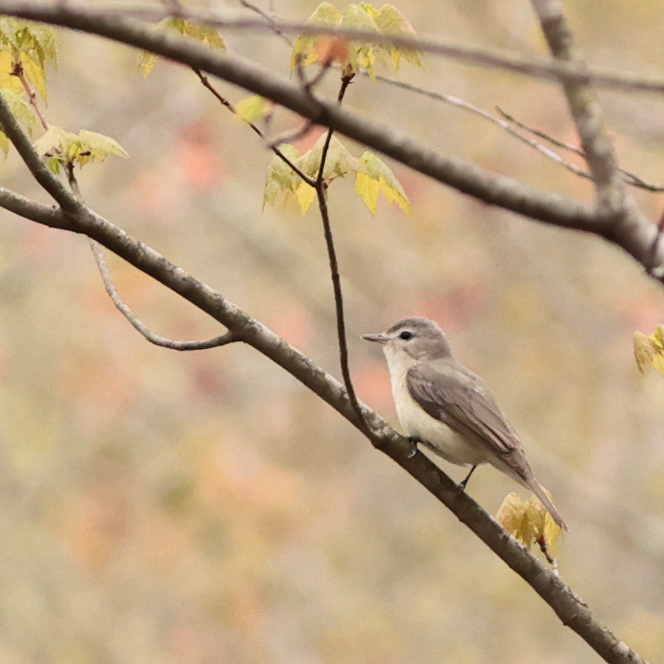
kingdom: Animalia
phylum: Chordata
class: Aves
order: Passeriformes
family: Vireonidae
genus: Vireo
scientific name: Vireo gilvus
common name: Warbling vireo
